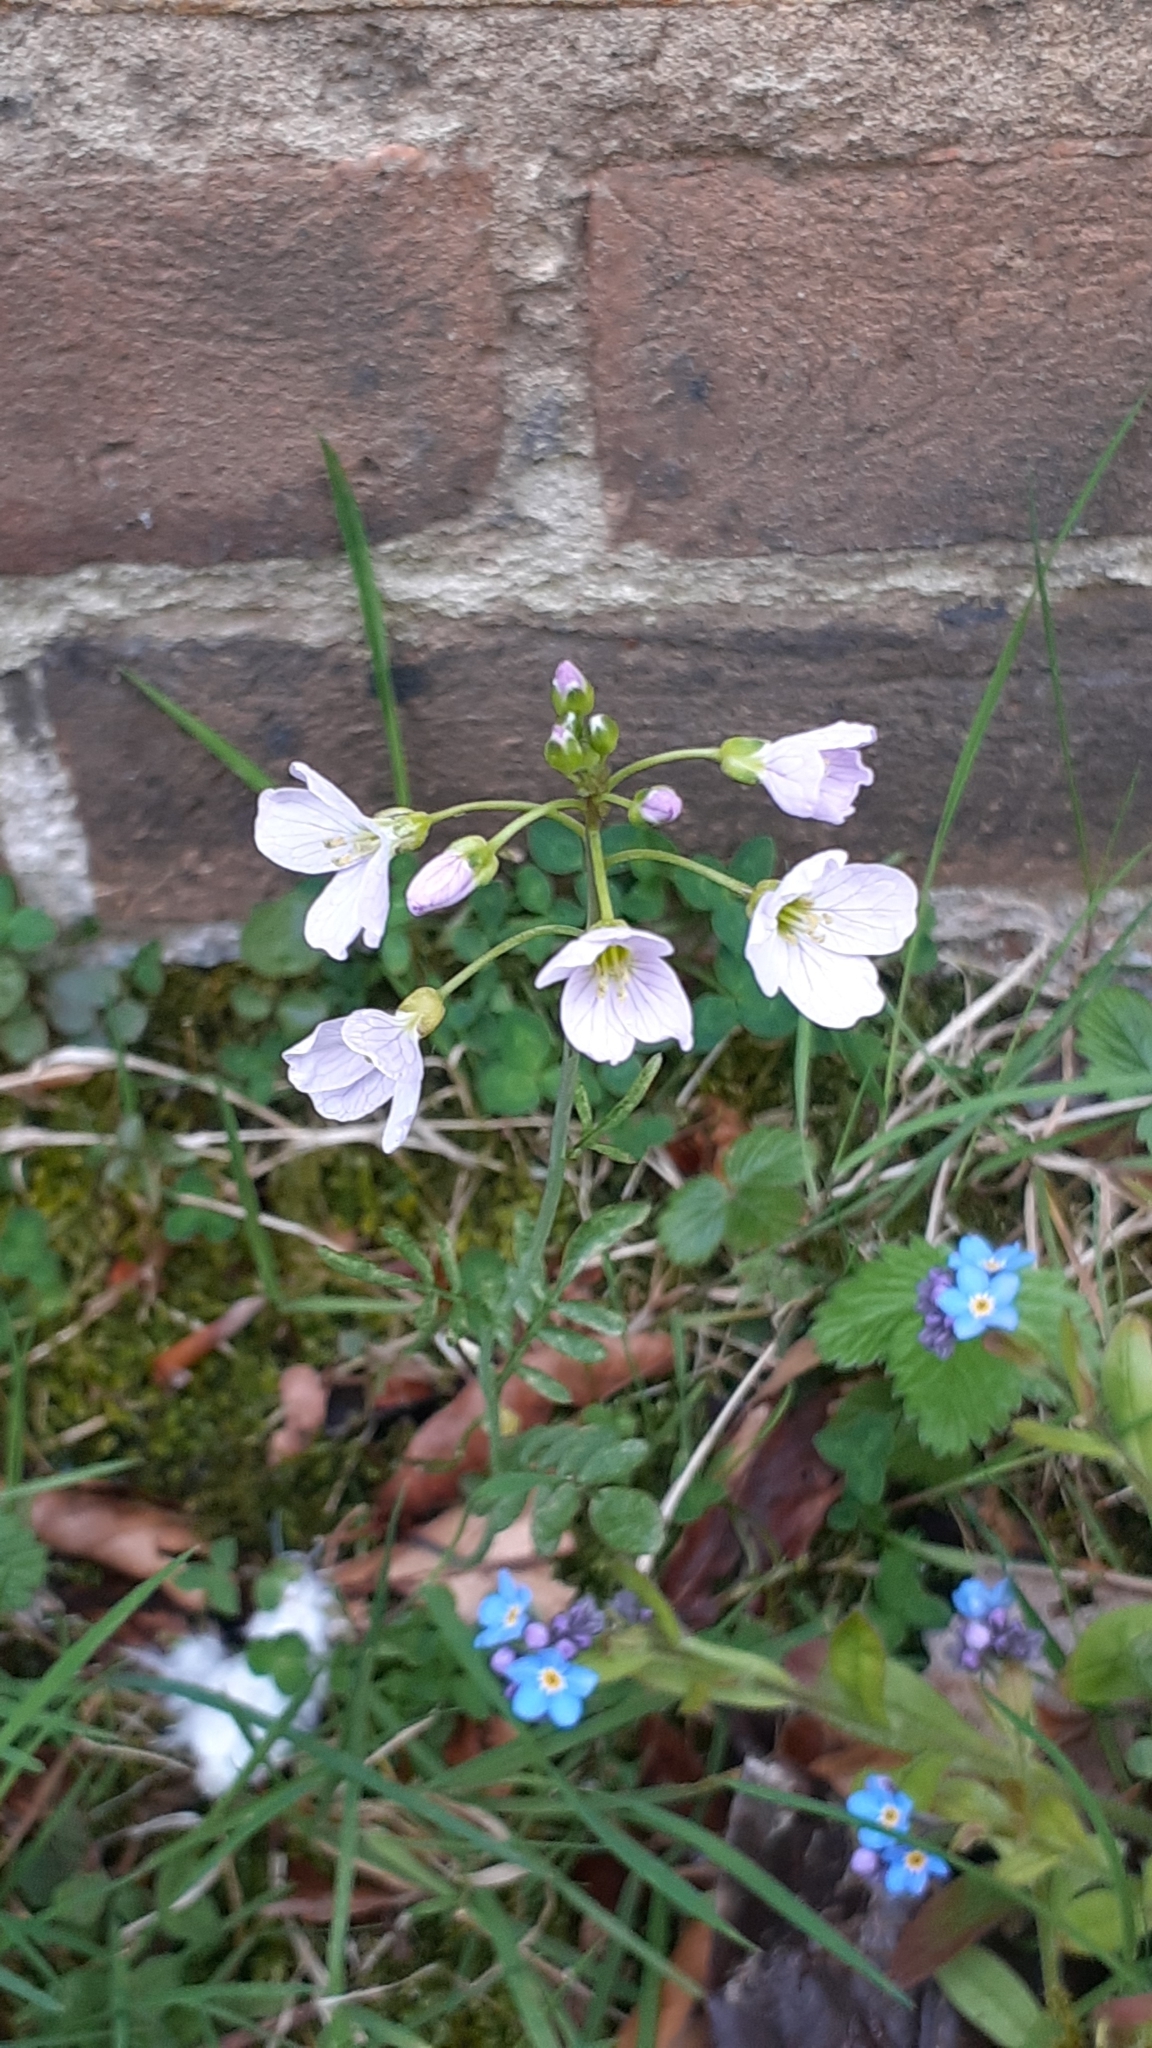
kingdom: Plantae
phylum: Tracheophyta
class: Magnoliopsida
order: Brassicales
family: Brassicaceae
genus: Cardamine
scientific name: Cardamine pratensis
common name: Cuckoo flower
